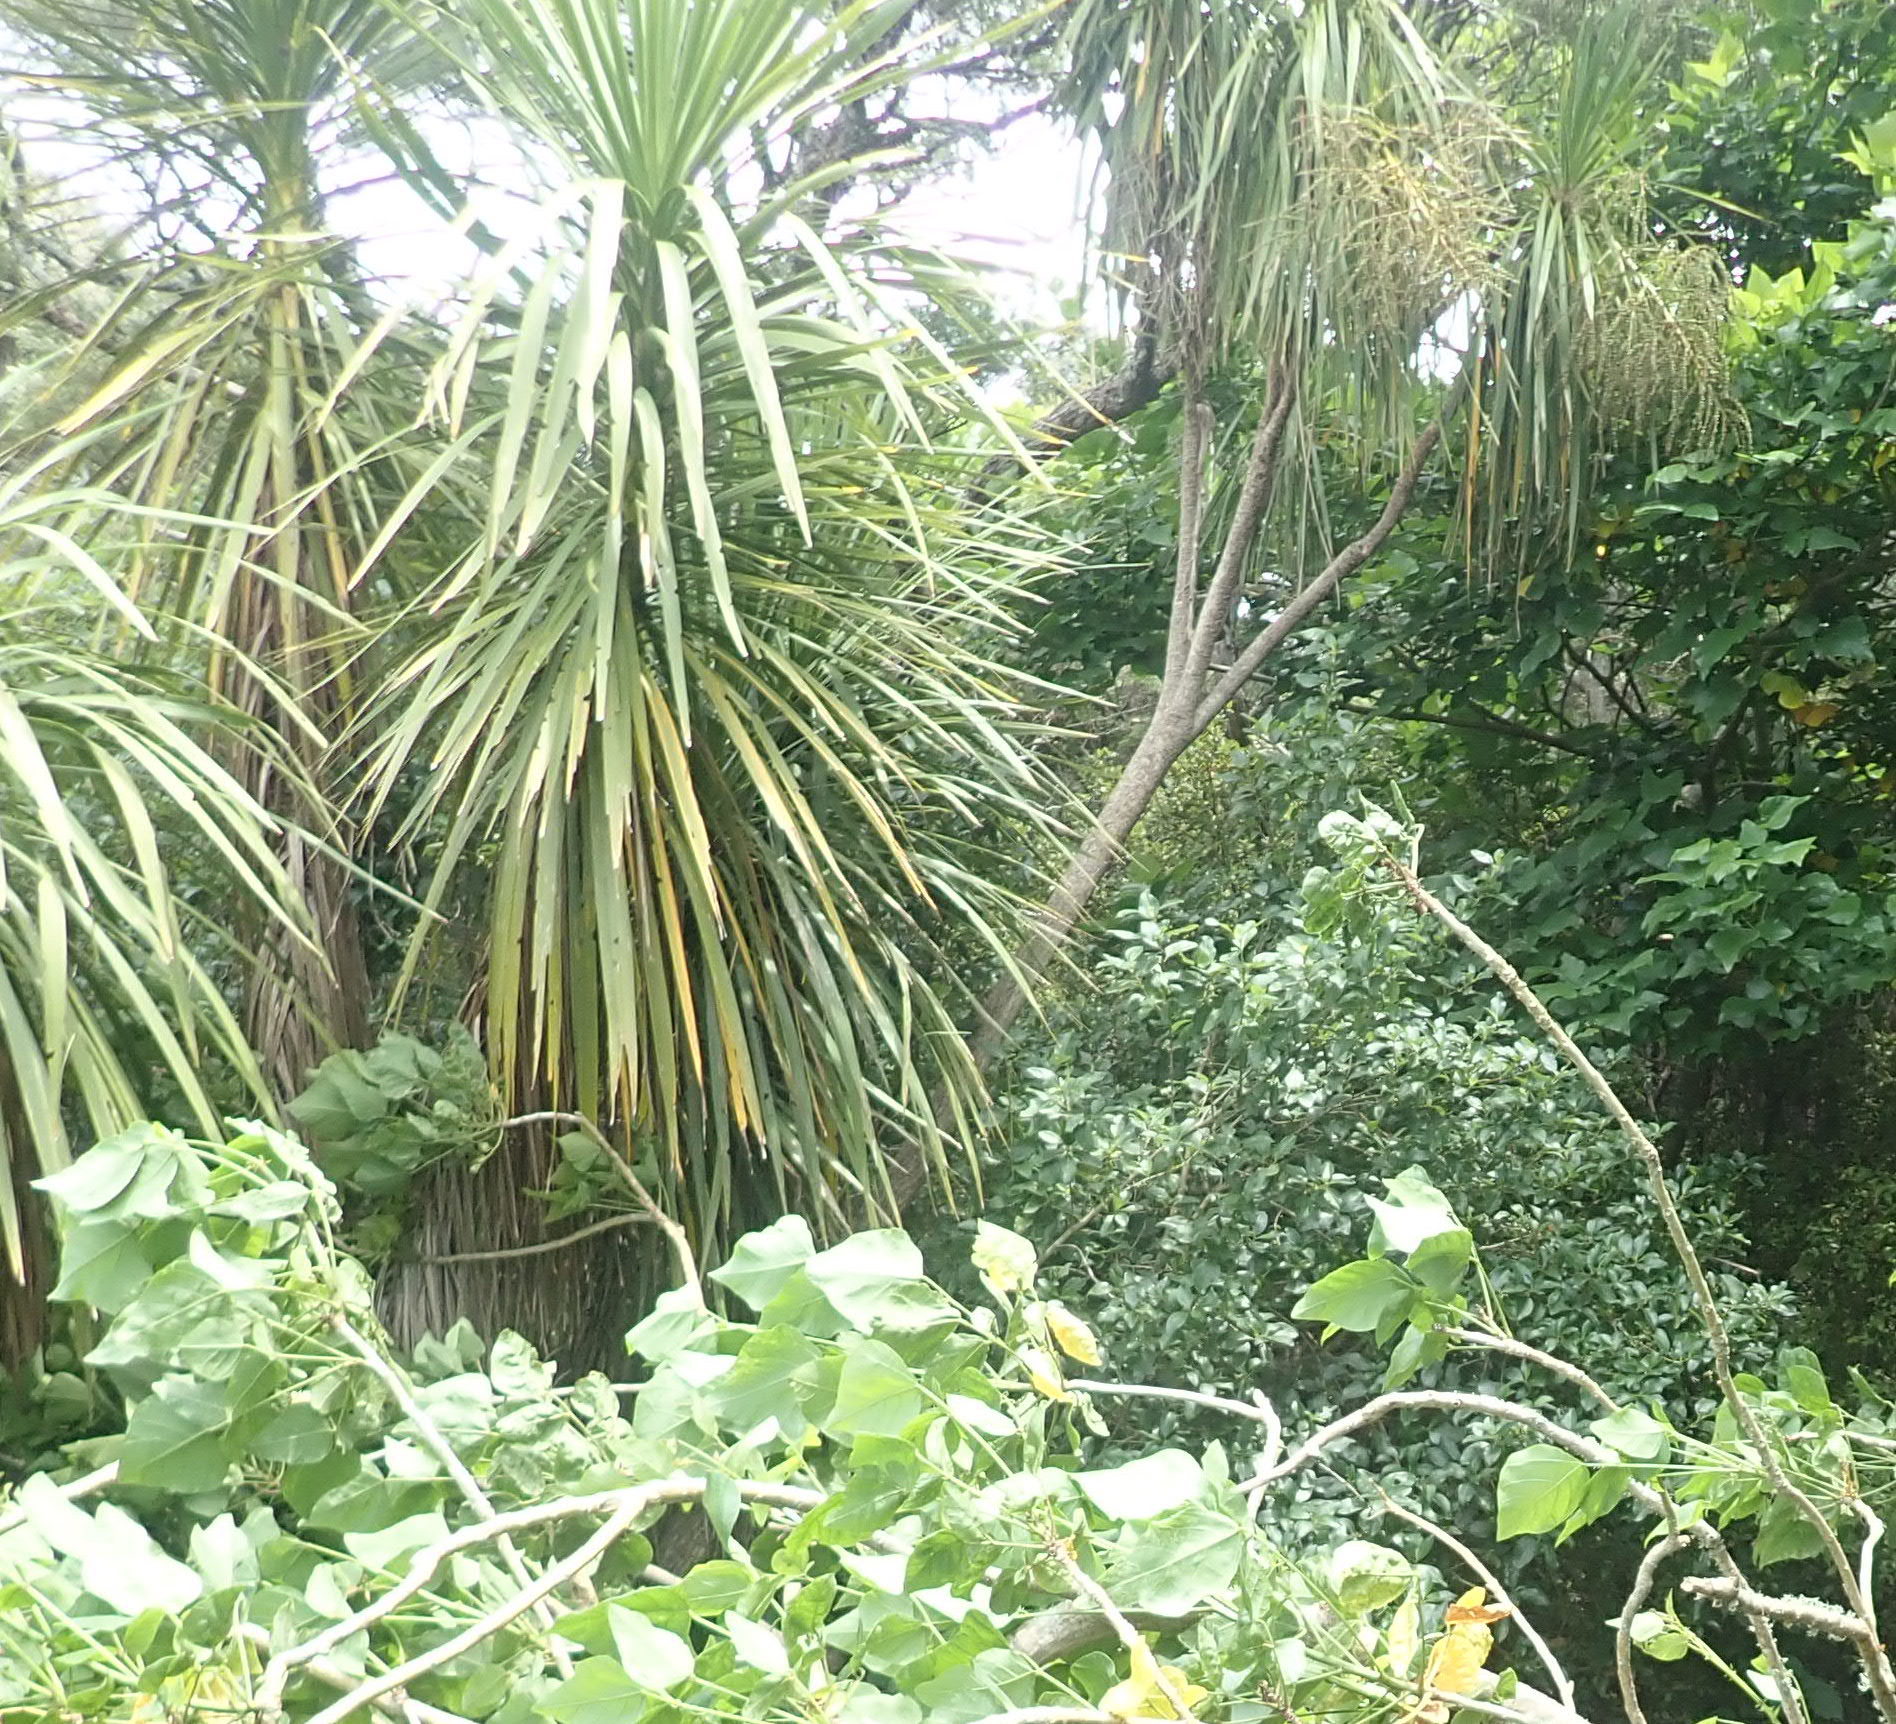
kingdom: Plantae
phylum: Tracheophyta
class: Liliopsida
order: Asparagales
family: Asparagaceae
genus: Cordyline
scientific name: Cordyline australis
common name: Cabbage-palm
